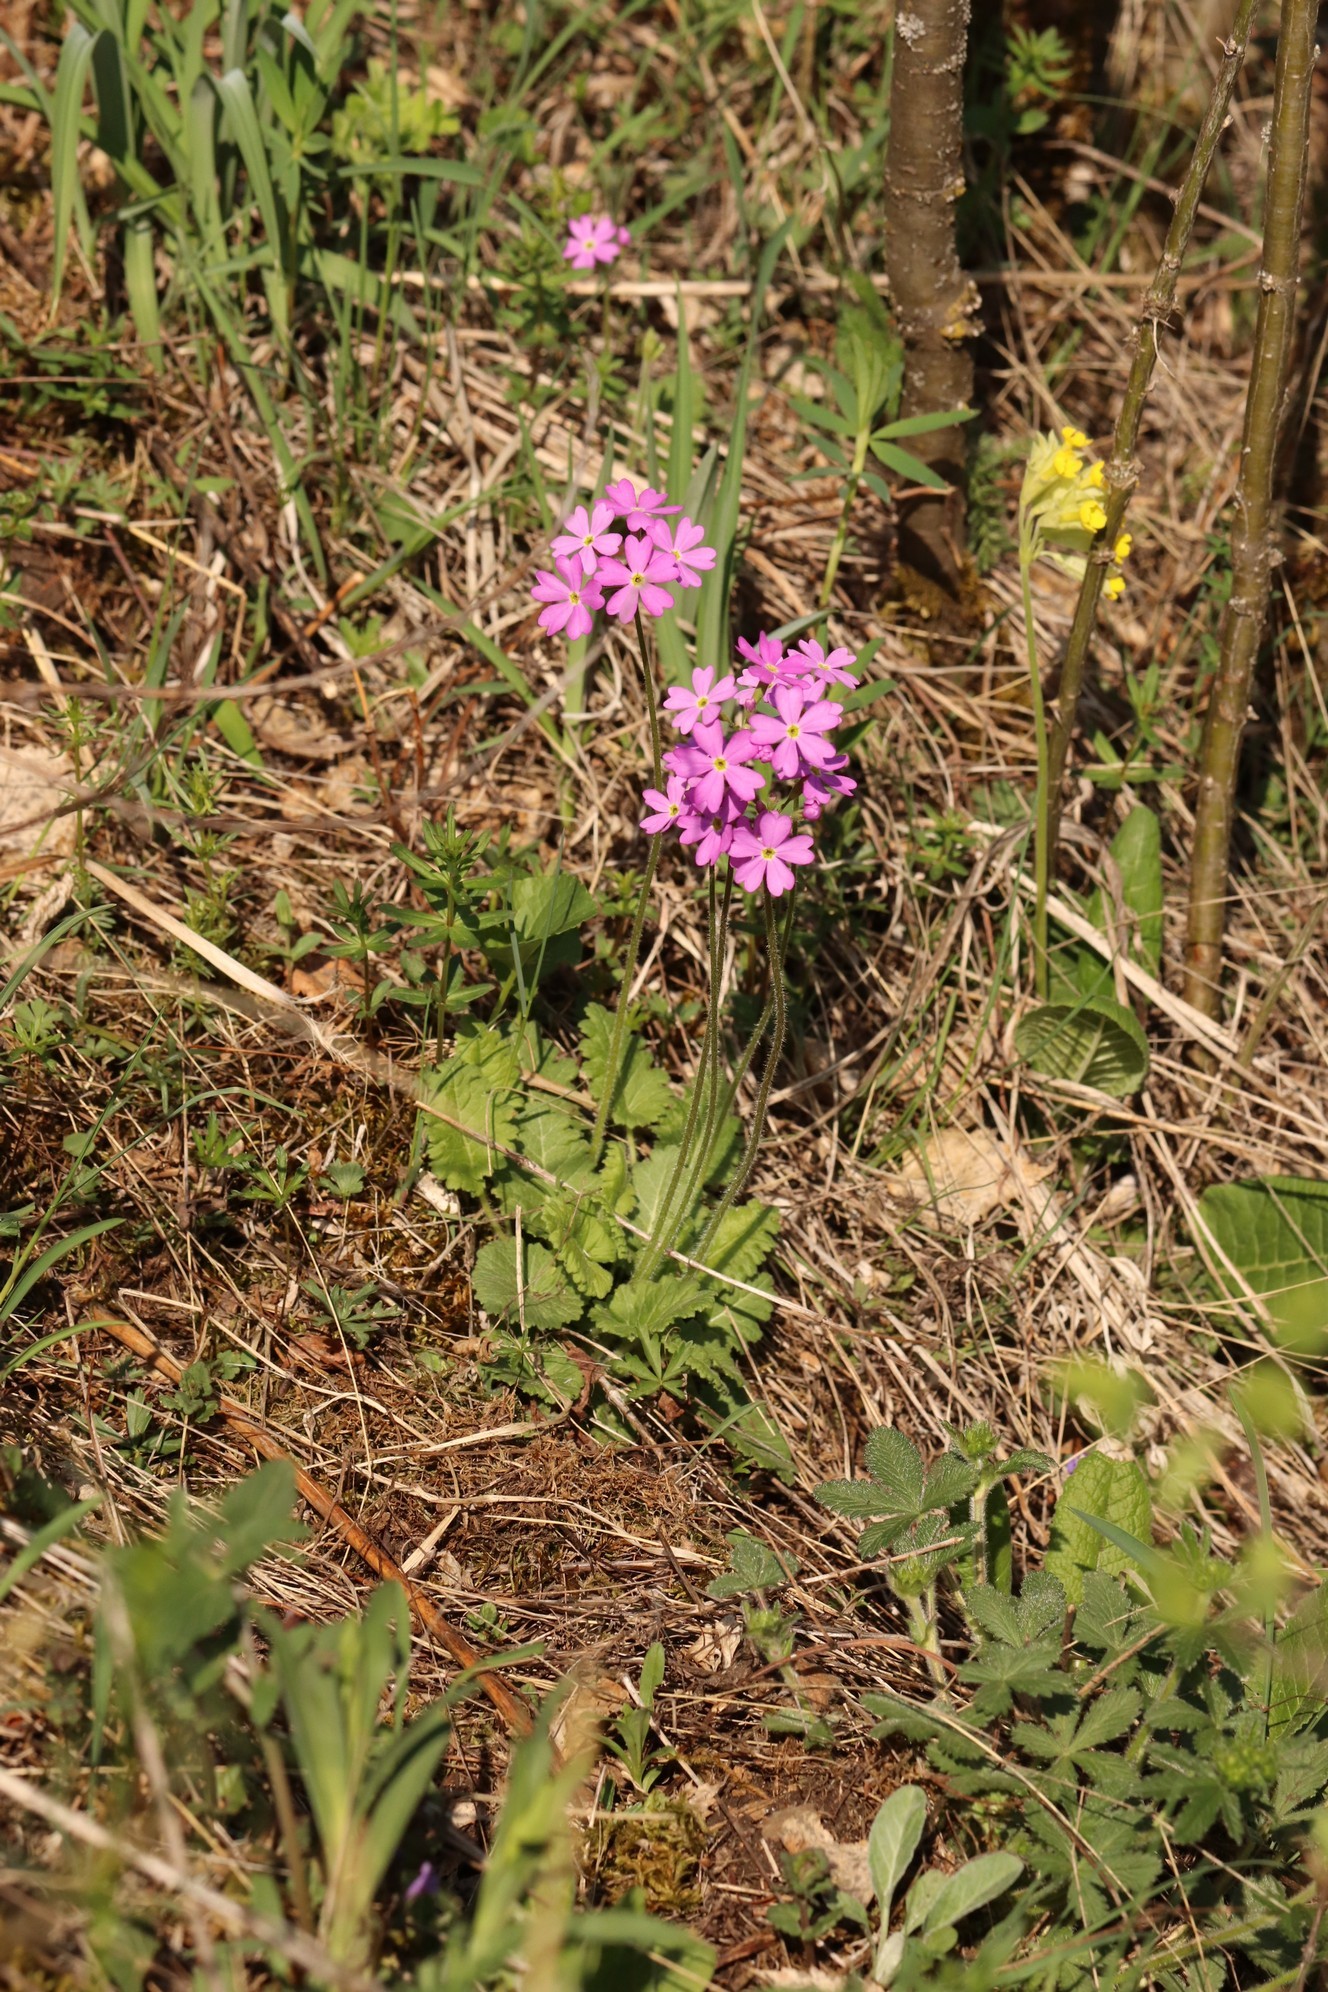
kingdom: Plantae
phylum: Tracheophyta
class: Magnoliopsida
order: Ericales
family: Primulaceae
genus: Primula
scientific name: Primula cortusoides
